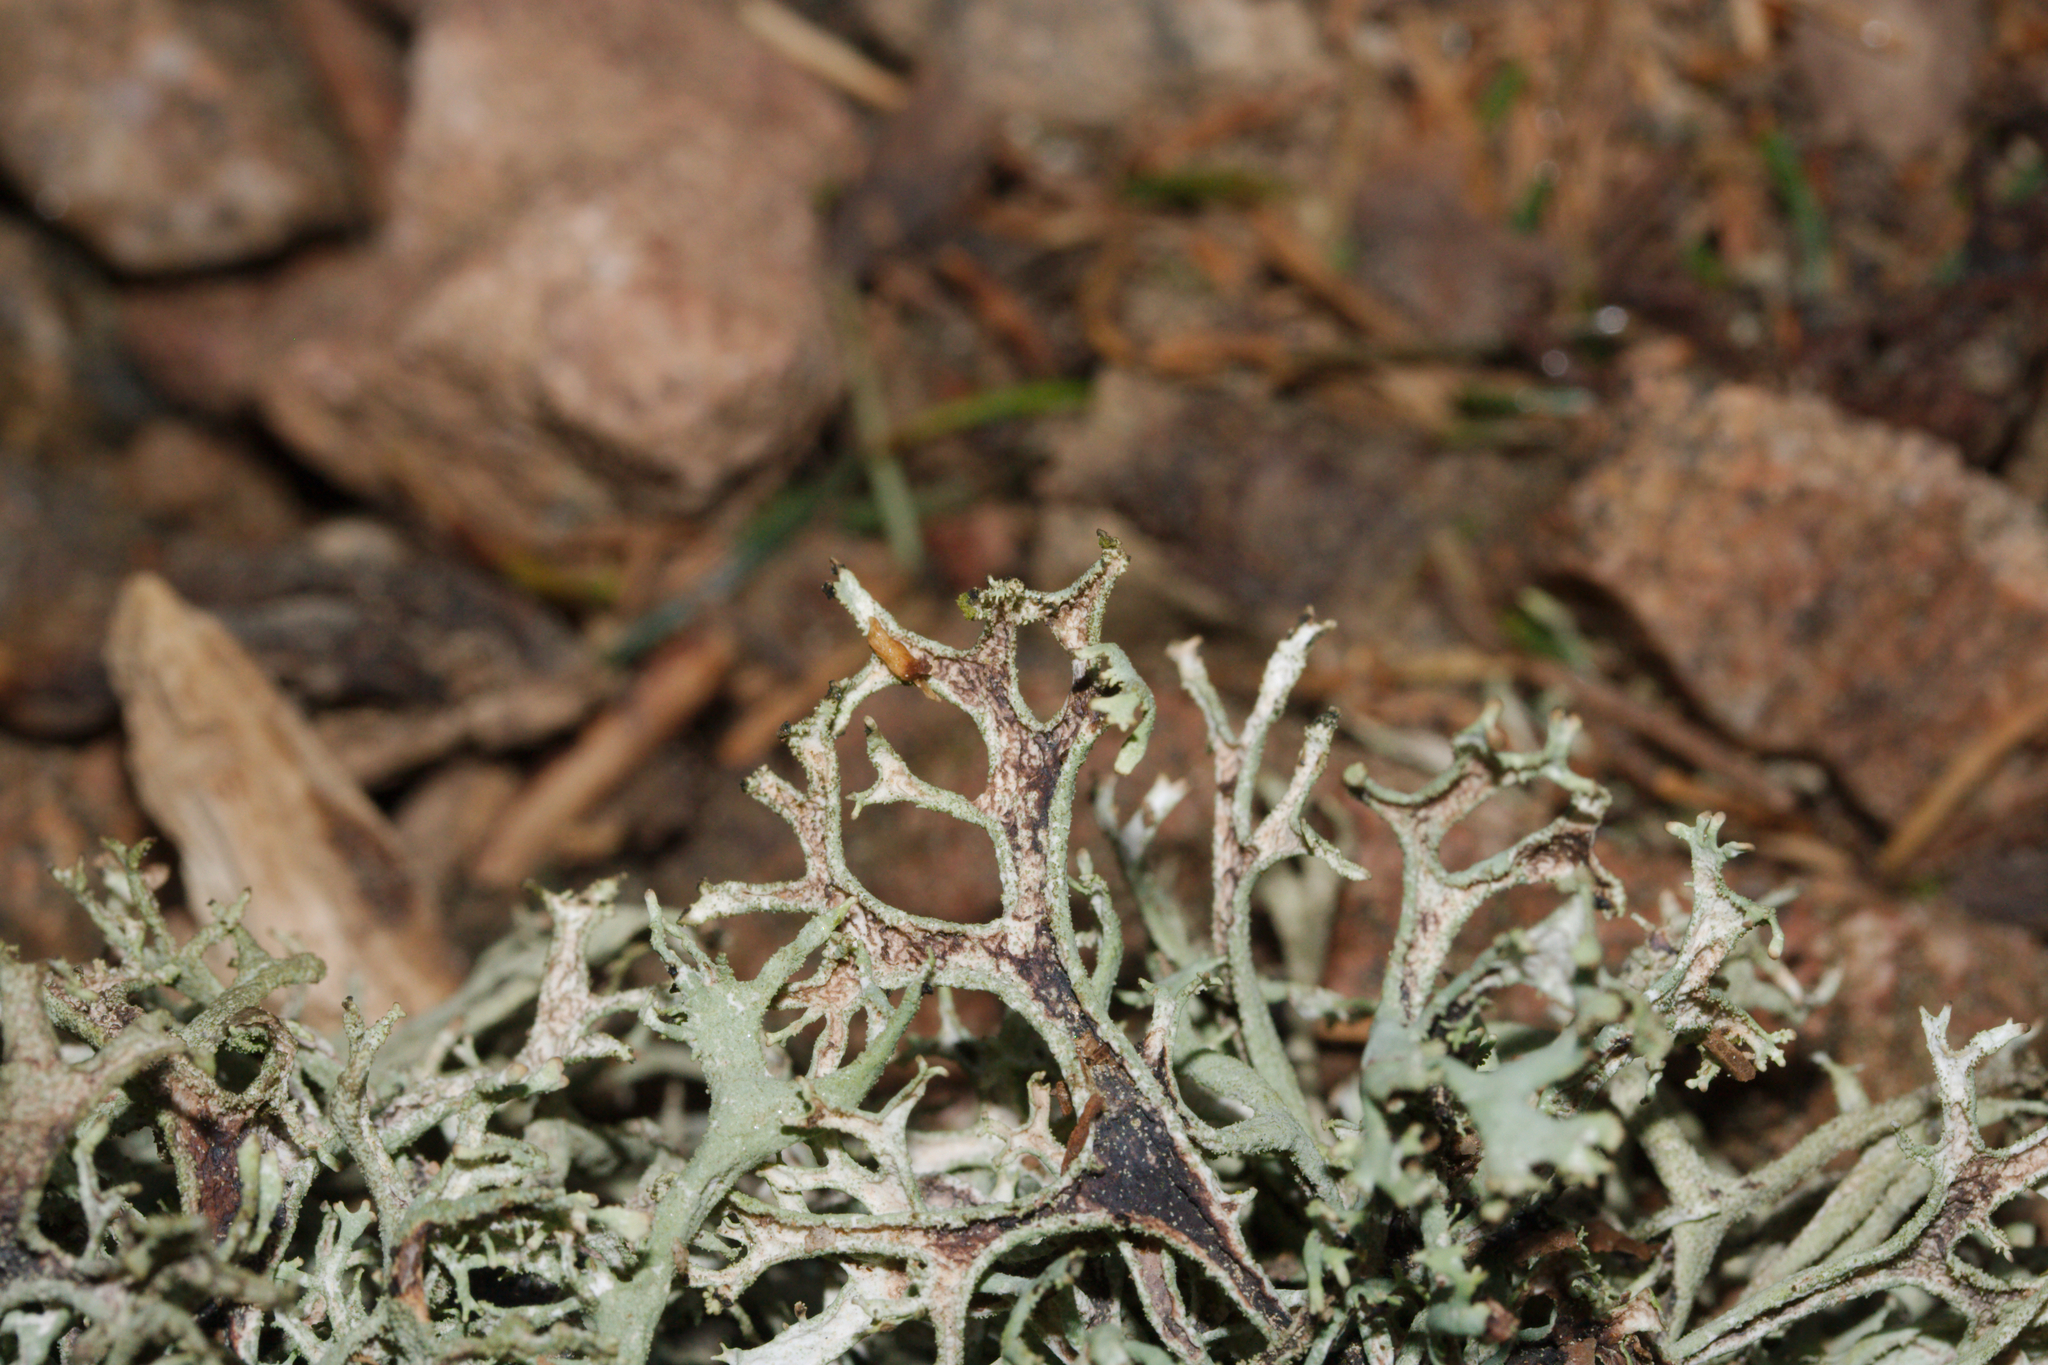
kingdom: Fungi
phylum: Ascomycota
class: Lecanoromycetes
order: Lecanorales
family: Parmeliaceae
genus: Pseudevernia
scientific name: Pseudevernia furfuracea
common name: Tree moss
